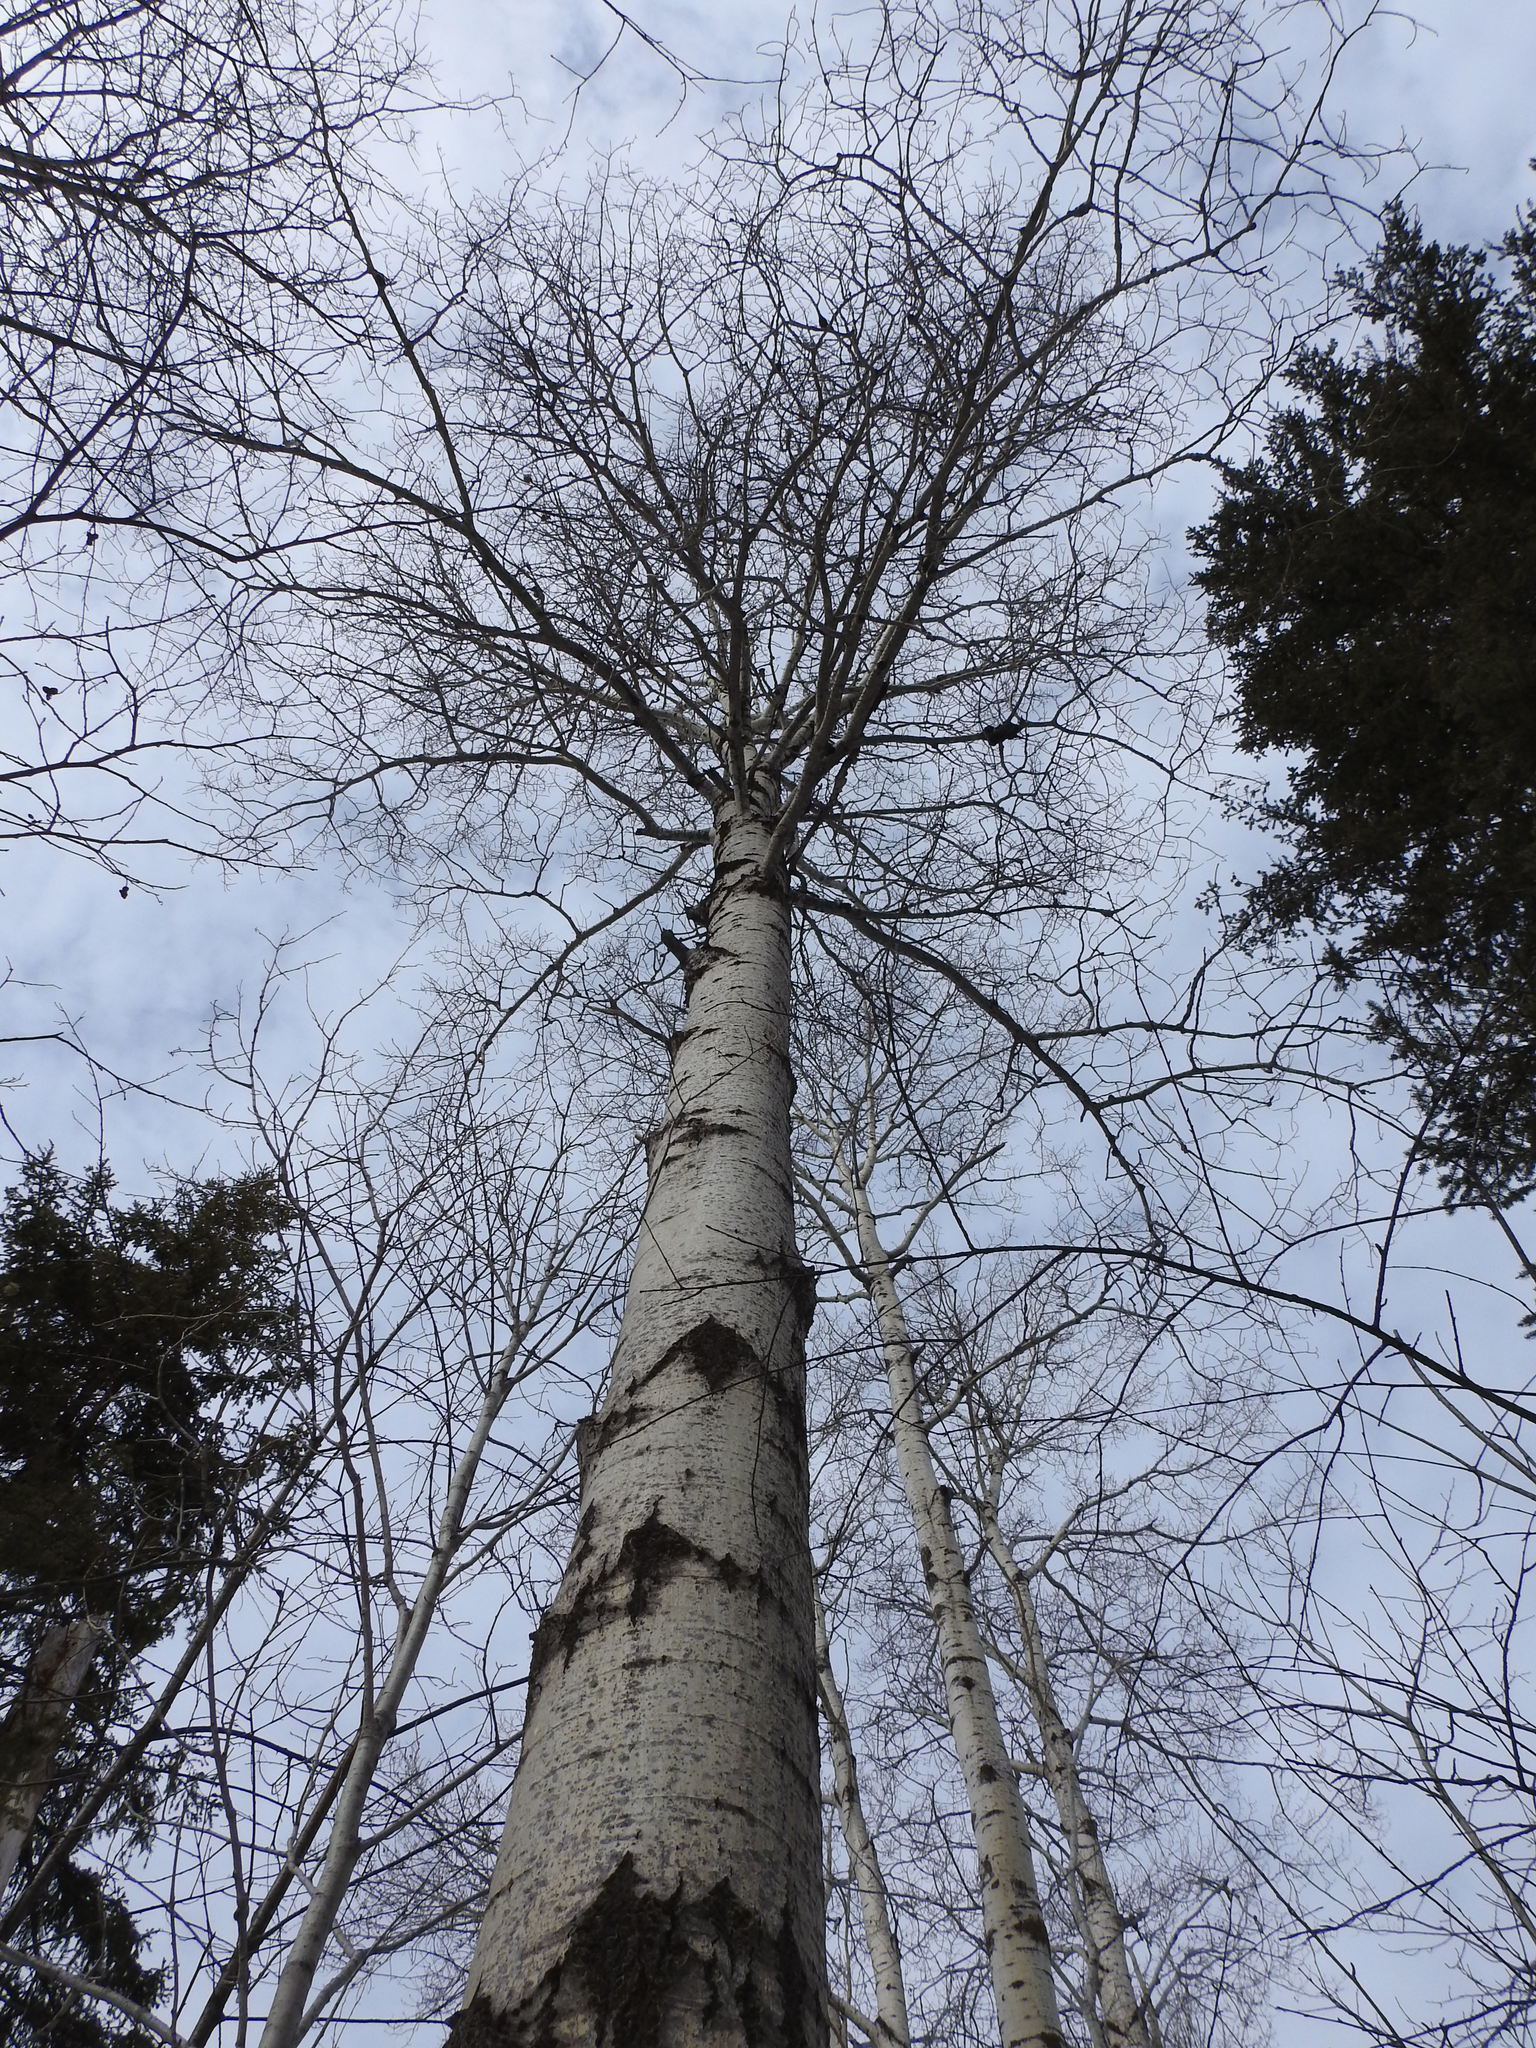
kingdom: Plantae
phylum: Tracheophyta
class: Magnoliopsida
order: Malpighiales
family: Salicaceae
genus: Populus
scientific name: Populus tremuloides
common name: Quaking aspen
